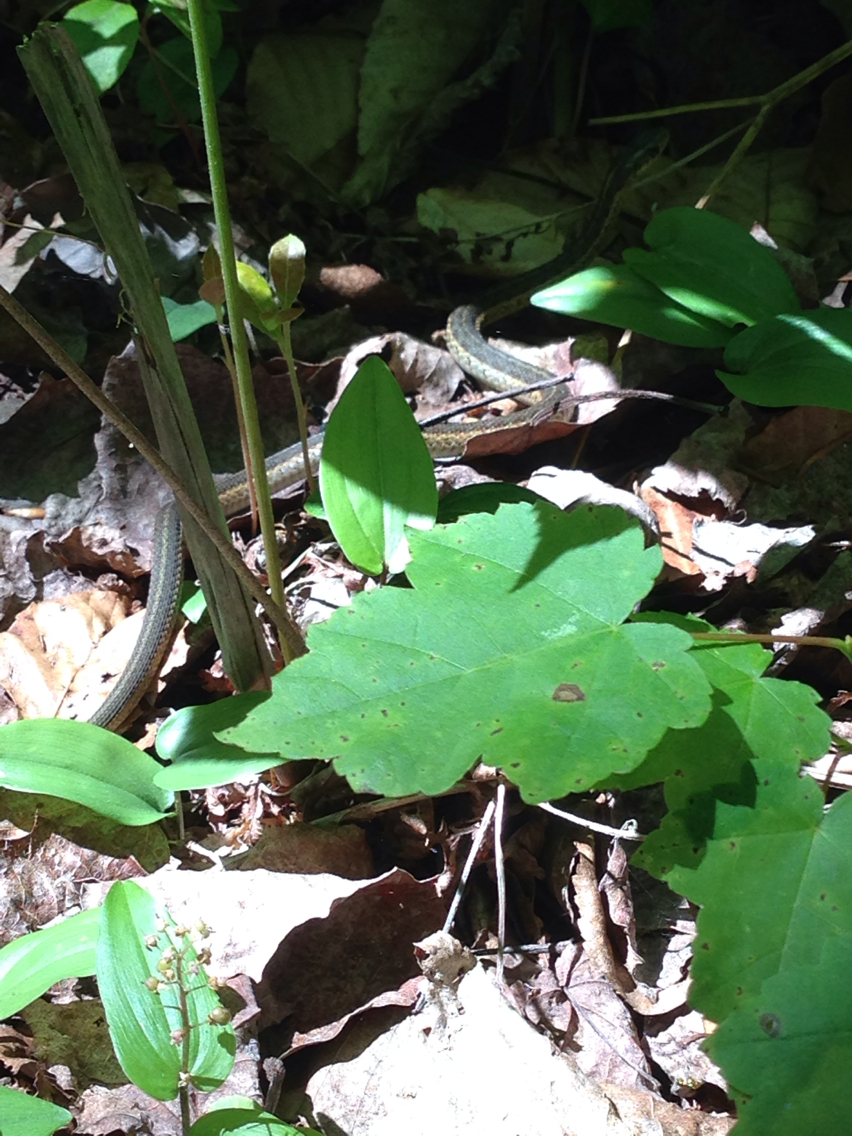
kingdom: Animalia
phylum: Chordata
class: Squamata
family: Colubridae
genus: Thamnophis
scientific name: Thamnophis sirtalis
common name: Common garter snake
